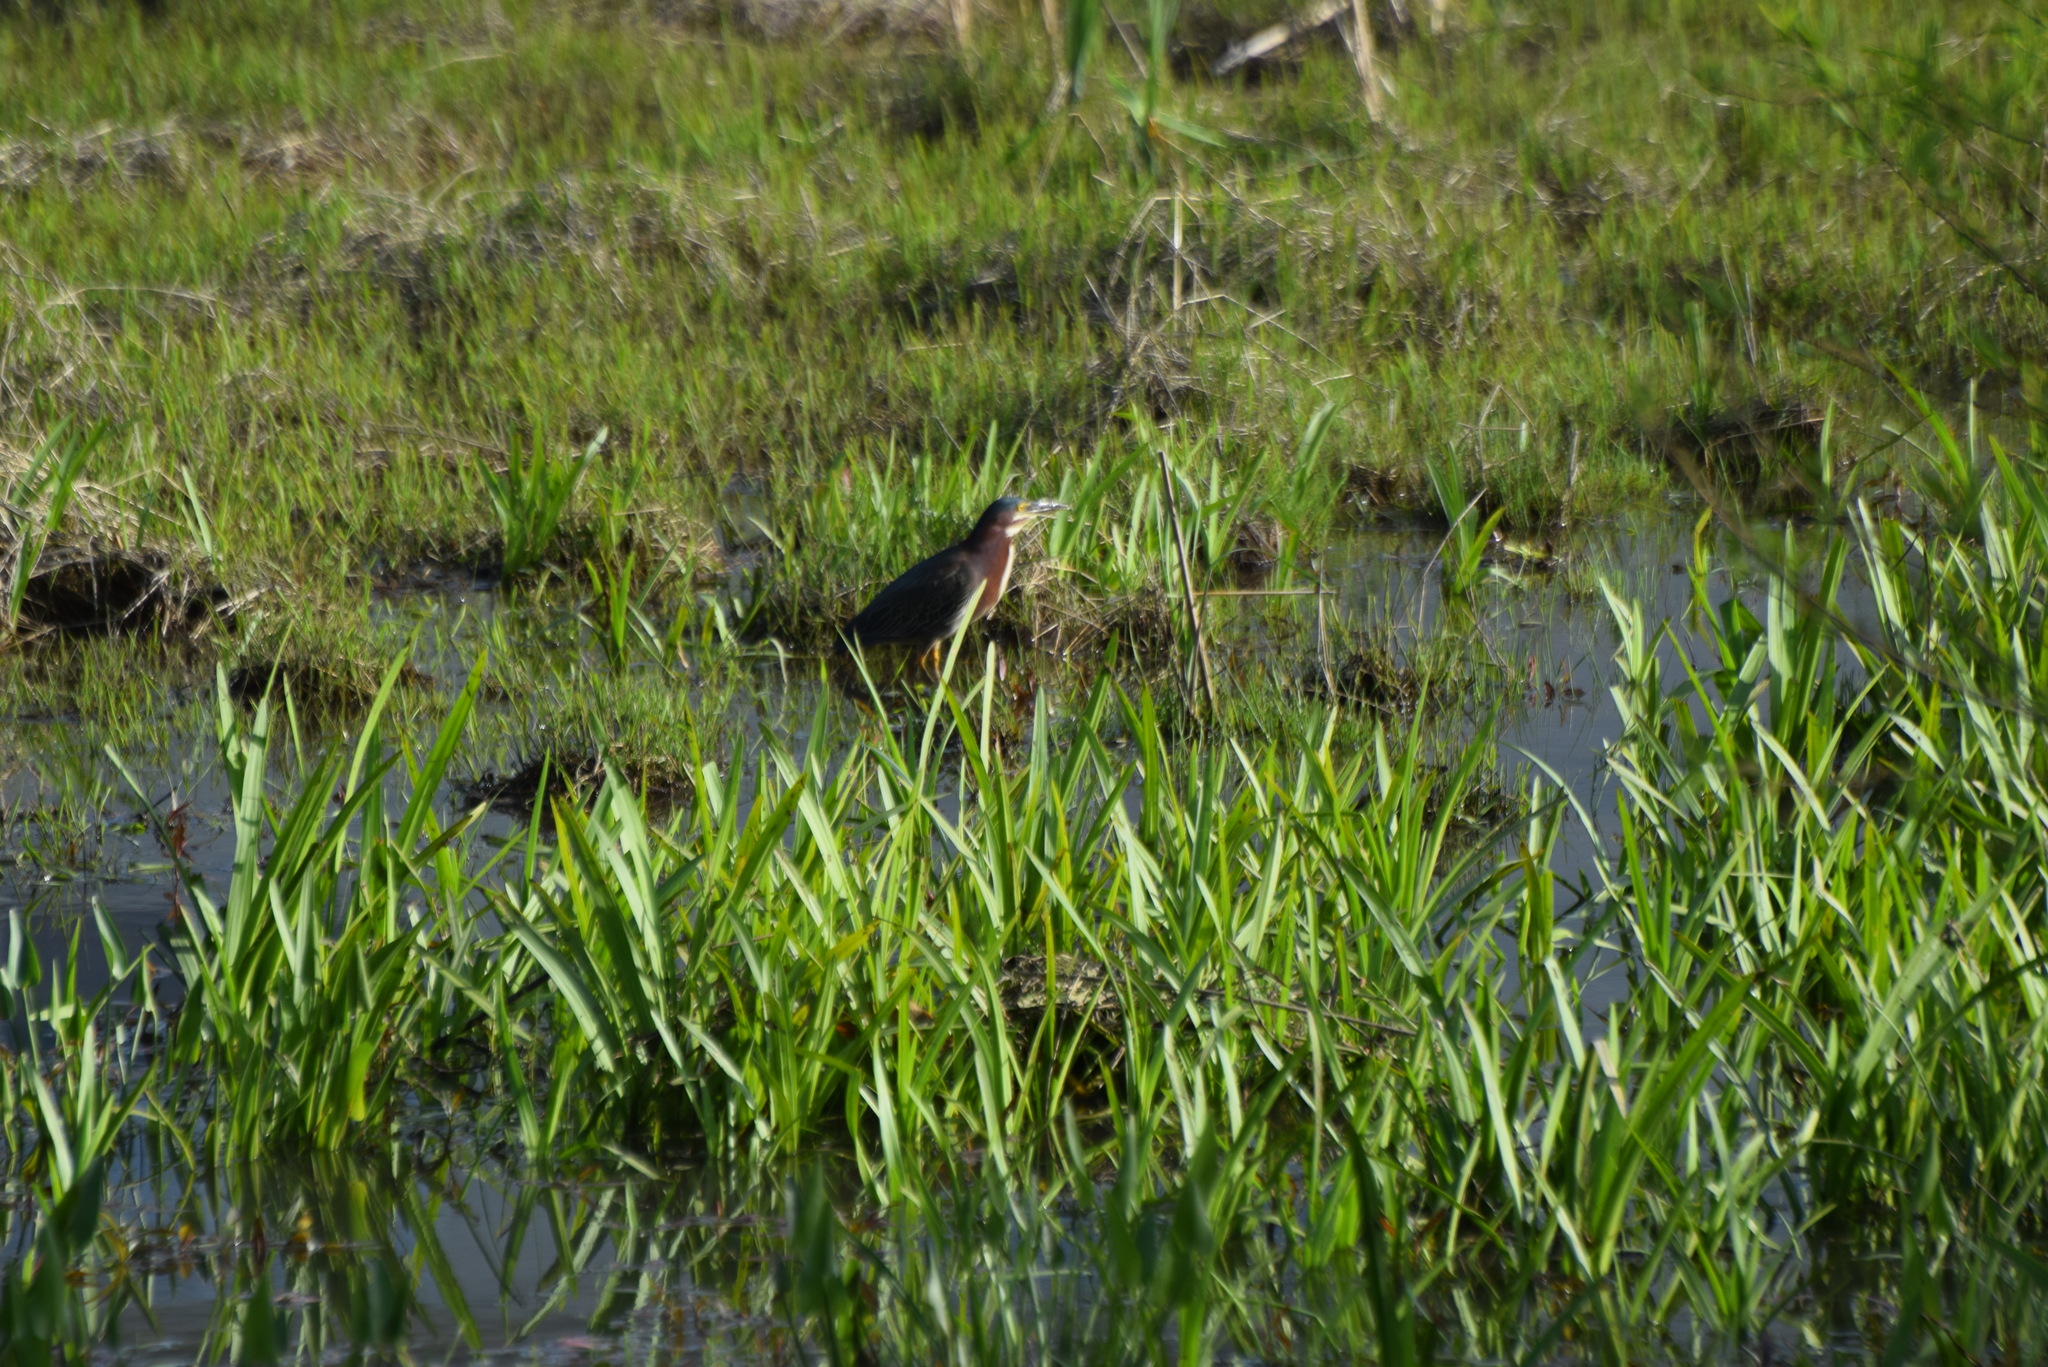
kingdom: Animalia
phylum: Chordata
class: Aves
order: Pelecaniformes
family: Ardeidae
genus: Butorides
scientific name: Butorides virescens
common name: Green heron
